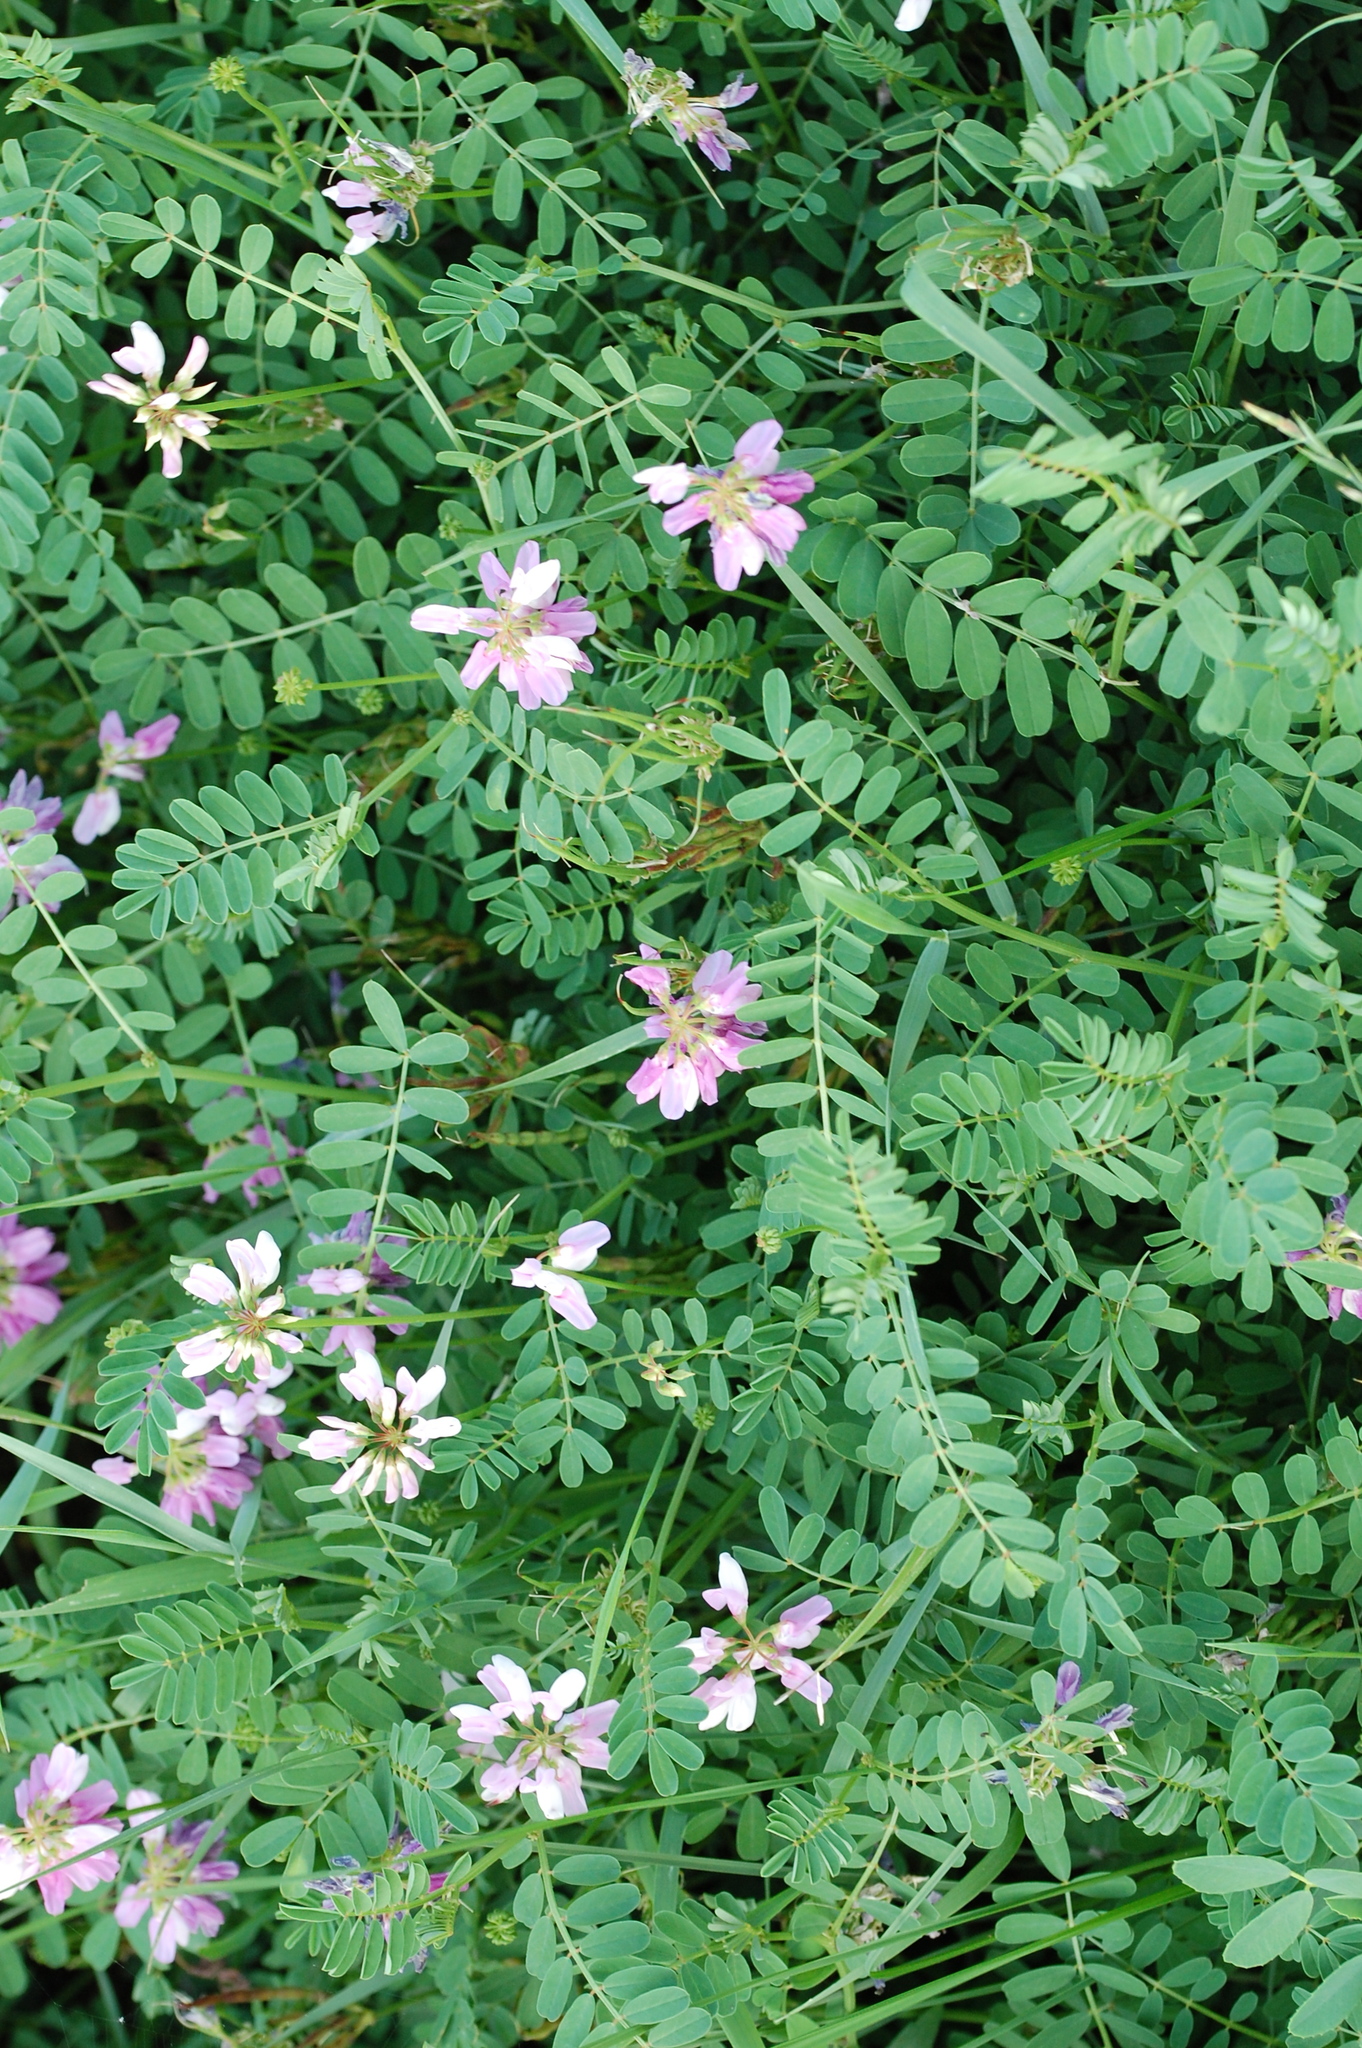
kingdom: Plantae
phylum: Tracheophyta
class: Magnoliopsida
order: Fabales
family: Fabaceae
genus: Coronilla
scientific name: Coronilla varia
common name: Crownvetch
